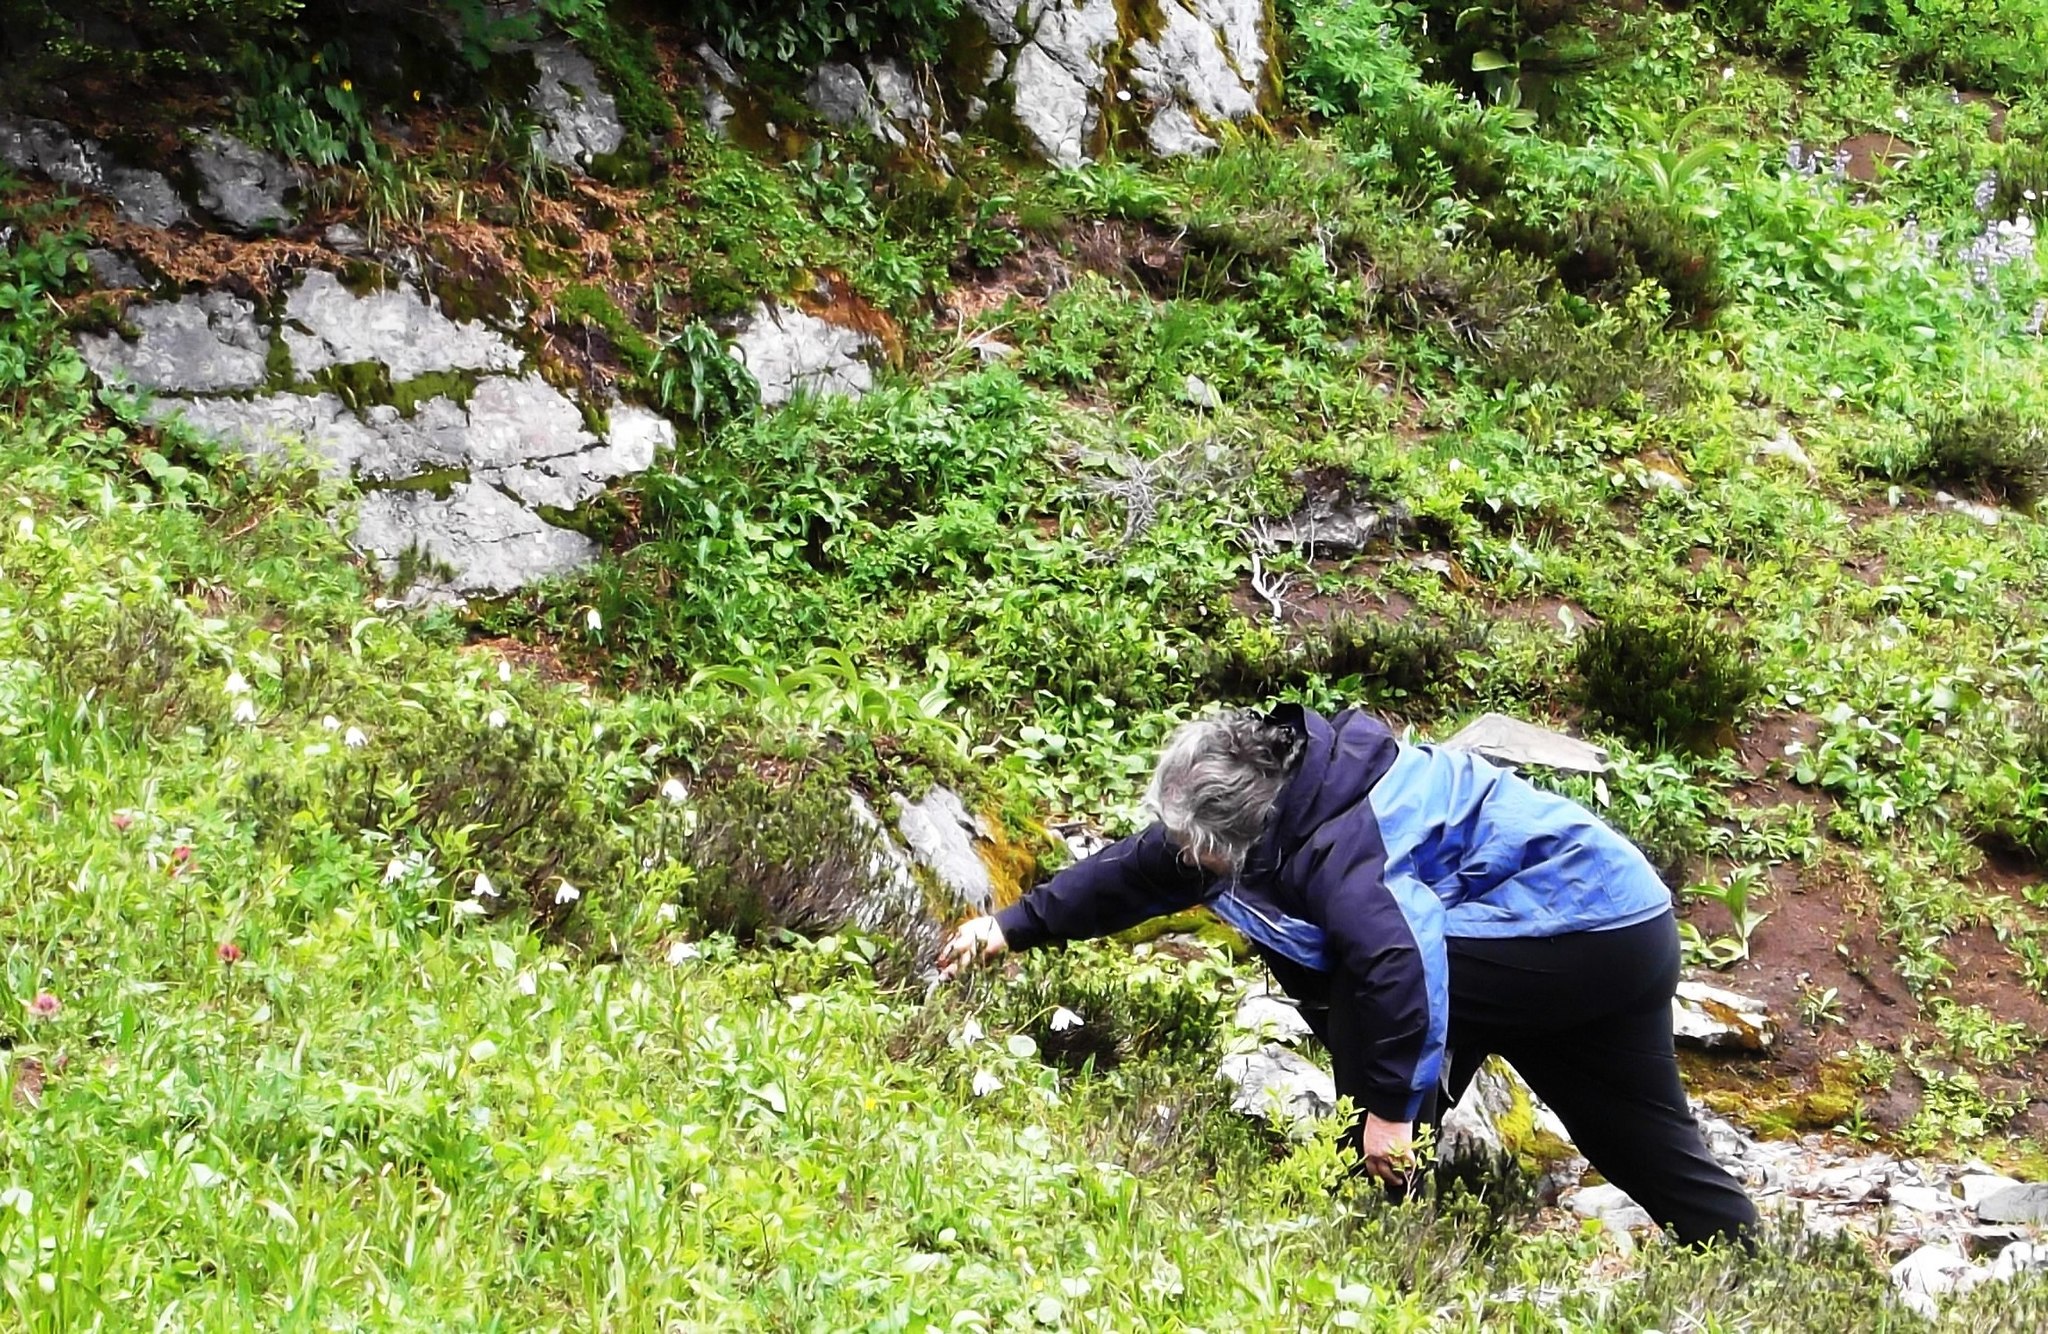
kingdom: Plantae
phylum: Tracheophyta
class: Liliopsida
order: Liliales
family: Liliaceae
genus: Erythronium
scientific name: Erythronium montanum
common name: Avalanche lily
